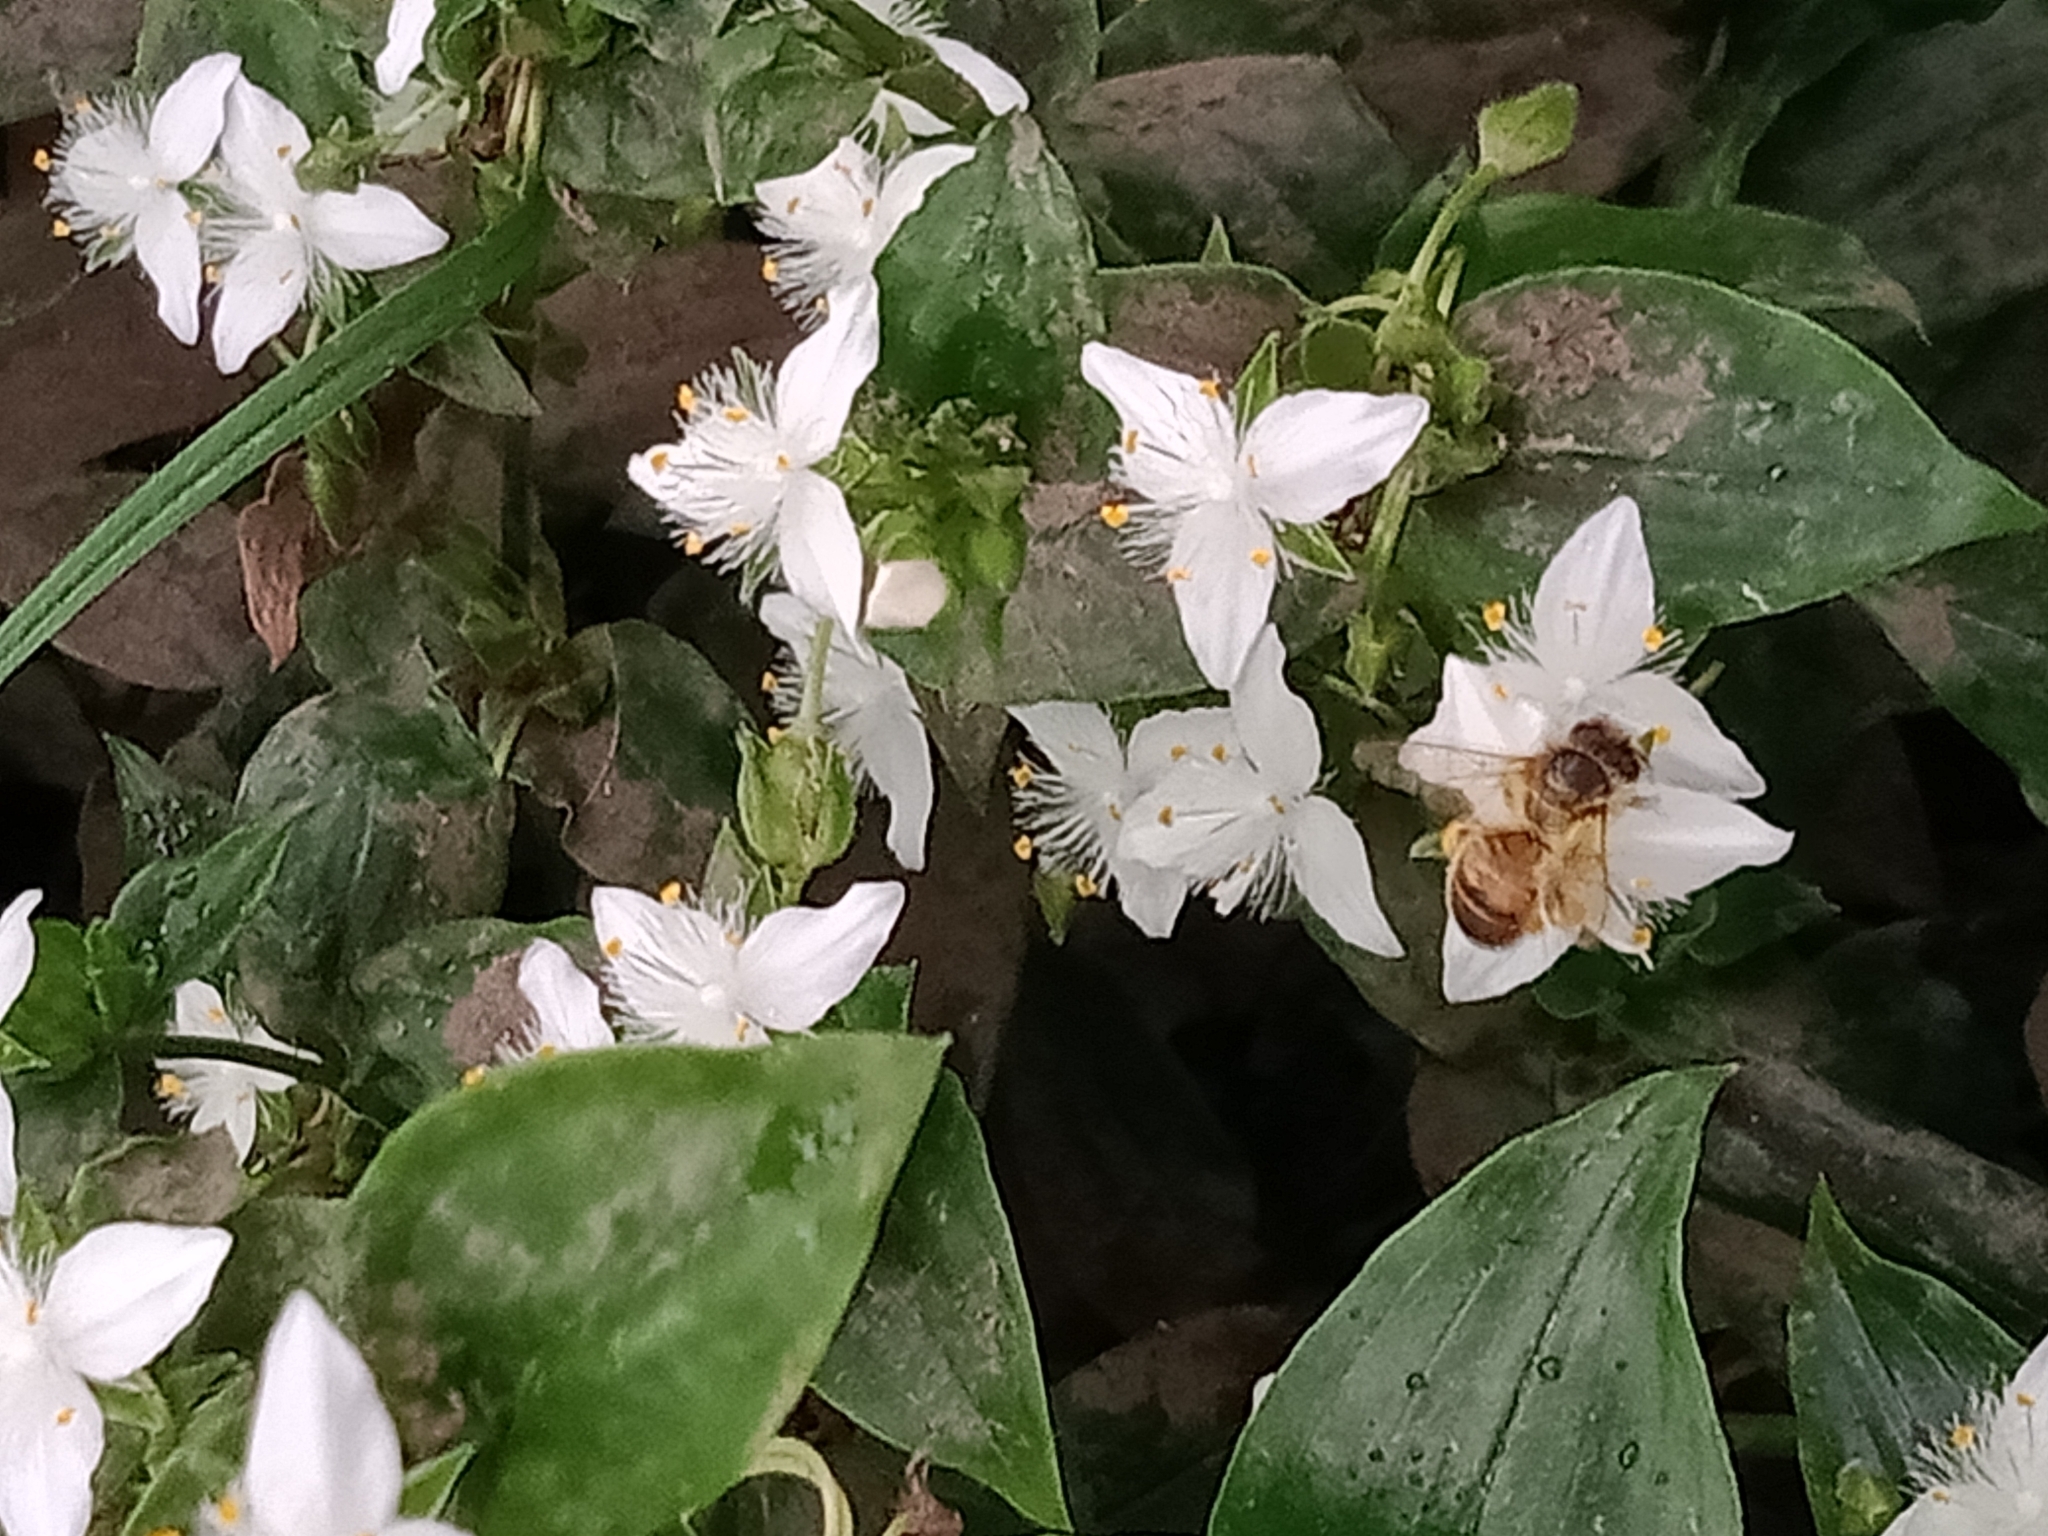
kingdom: Plantae
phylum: Tracheophyta
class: Liliopsida
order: Commelinales
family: Commelinaceae
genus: Tradescantia
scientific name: Tradescantia fluminensis
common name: Wandering-jew
